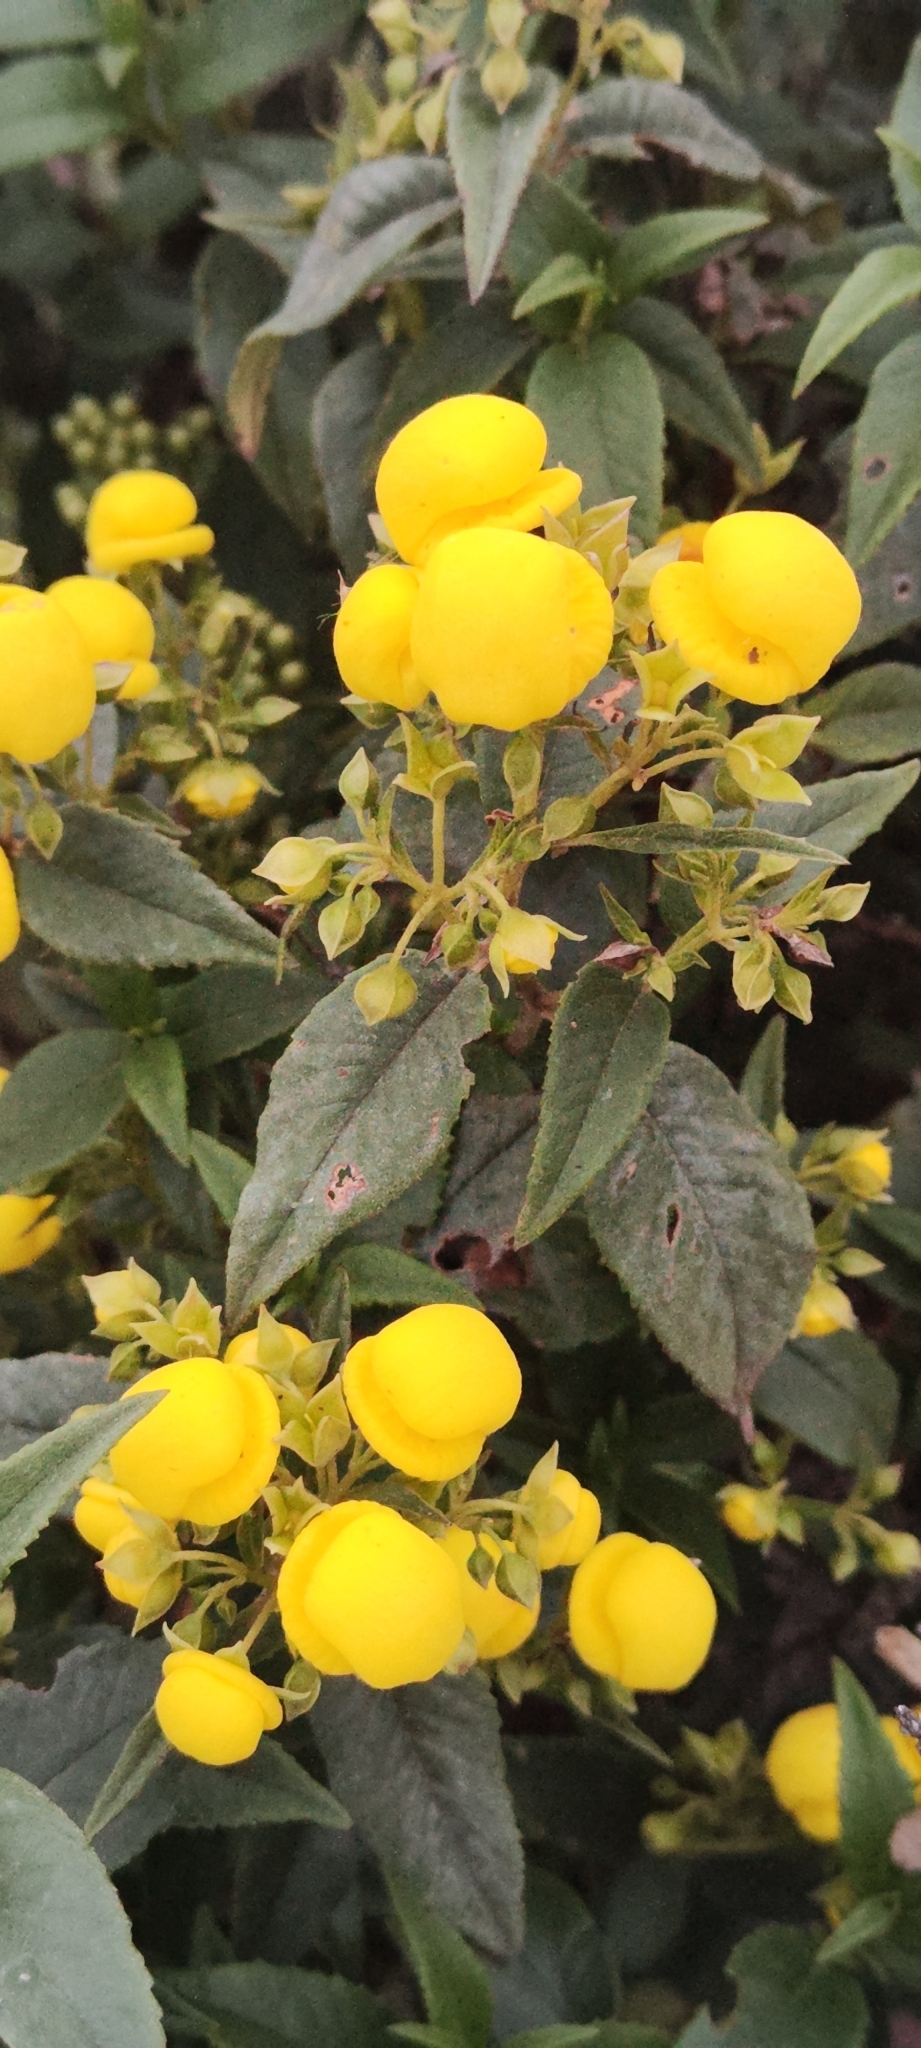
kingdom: Plantae
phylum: Tracheophyta
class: Magnoliopsida
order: Lamiales
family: Calceolariaceae
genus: Calceolaria
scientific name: Calceolaria nivalis
